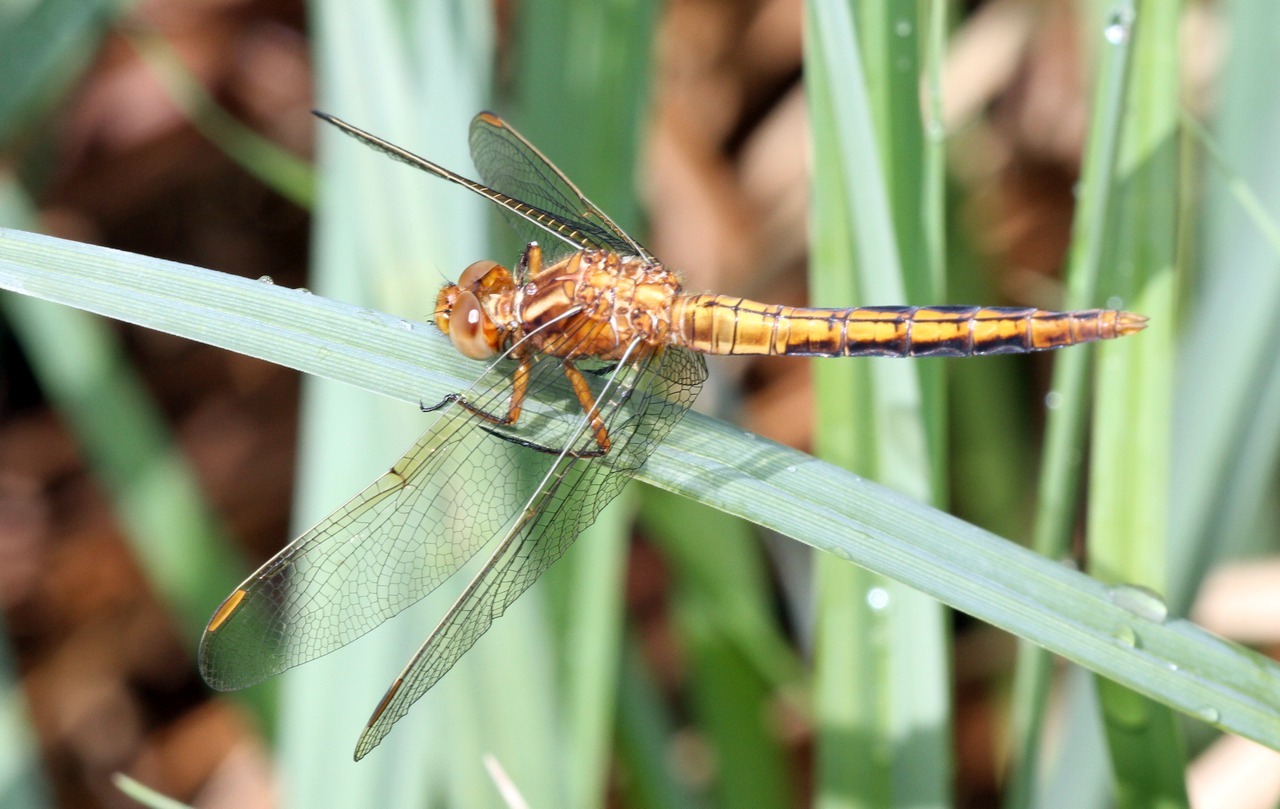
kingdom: Animalia
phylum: Arthropoda
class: Insecta
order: Odonata
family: Libellulidae
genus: Orthetrum
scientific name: Orthetrum coerulescens
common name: Keeled skimmer
